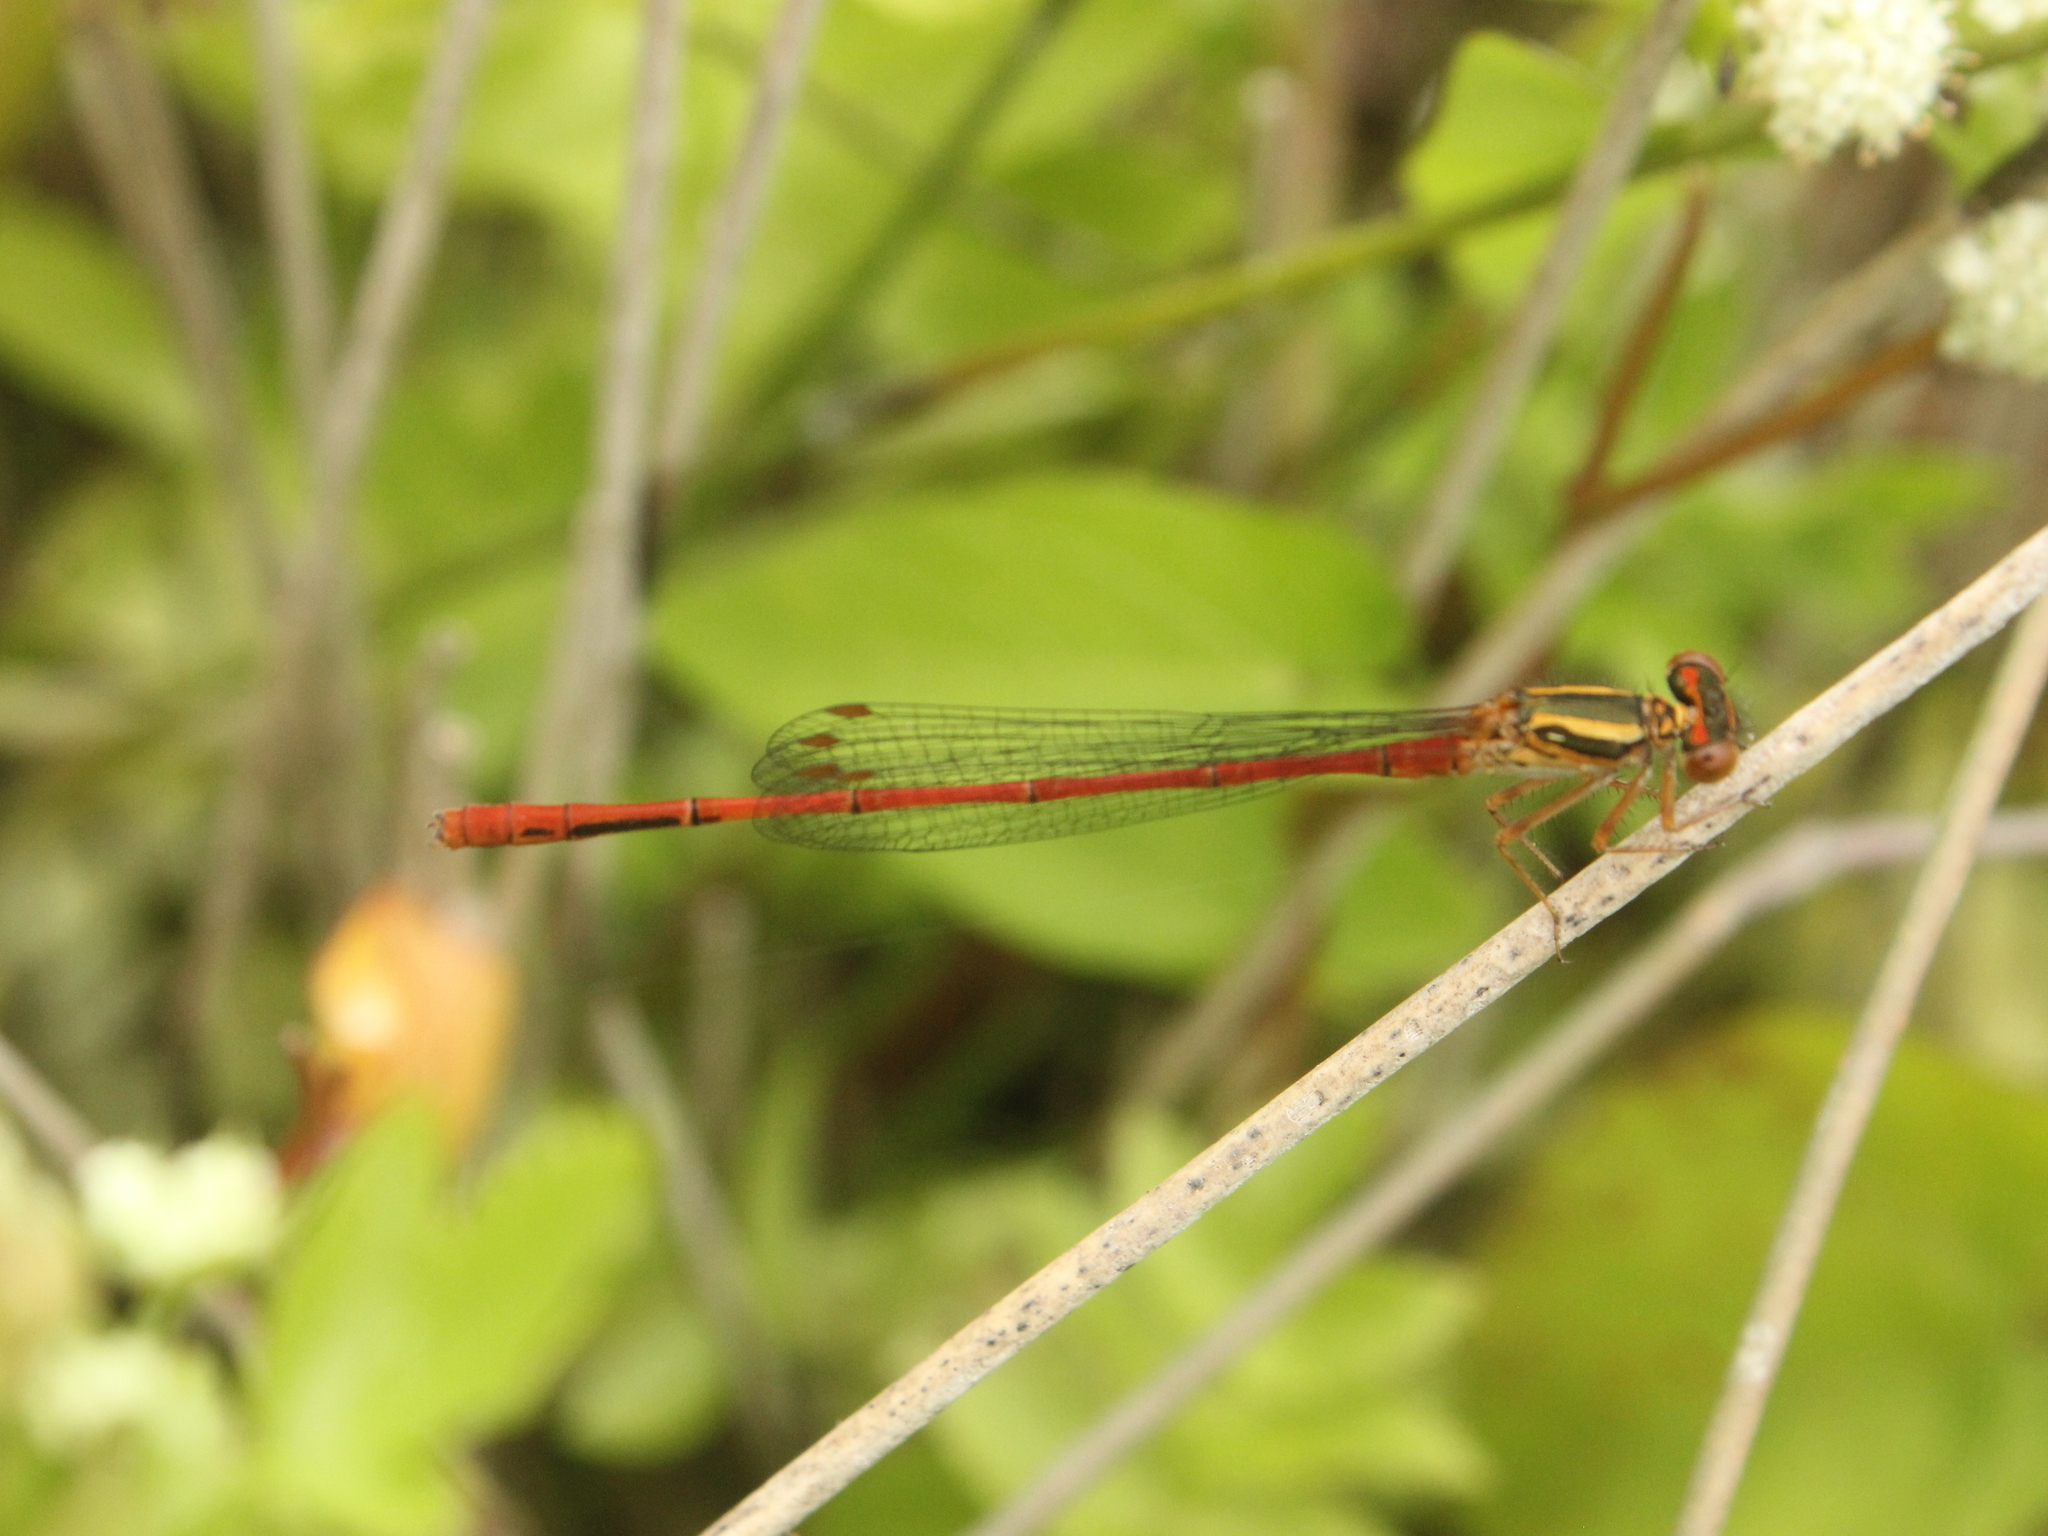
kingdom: Animalia
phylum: Arthropoda
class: Insecta
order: Odonata
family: Coenagrionidae
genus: Xanthocnemis
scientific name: Xanthocnemis zealandica
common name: Common redcoat damselfly
